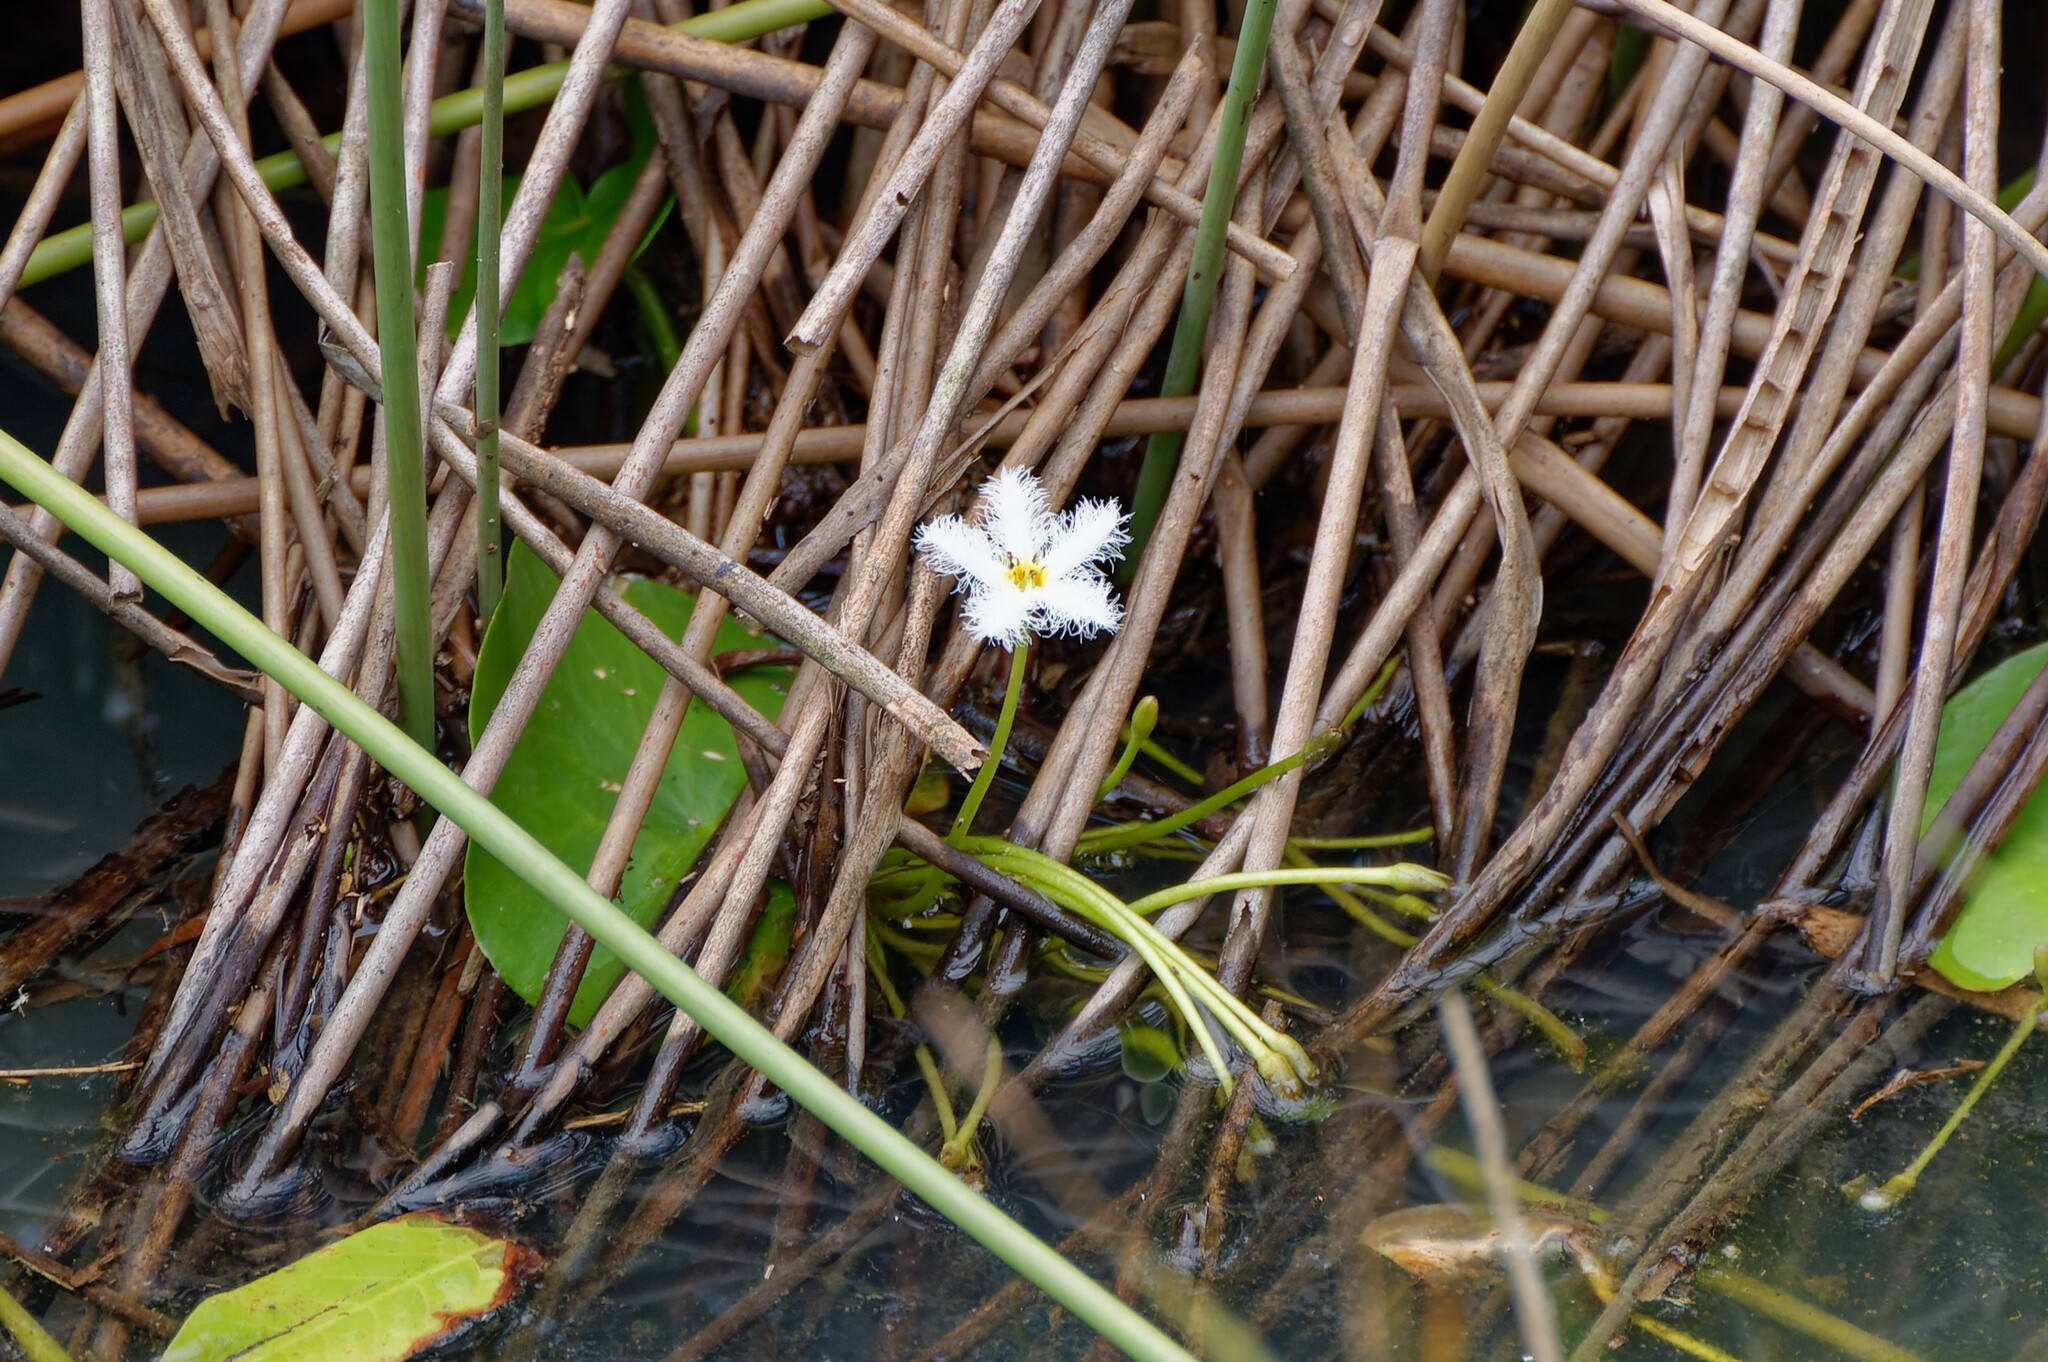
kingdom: Plantae
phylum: Tracheophyta
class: Magnoliopsida
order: Asterales
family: Menyanthaceae
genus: Nymphoides
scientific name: Nymphoides indica
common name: Water-snowflake
